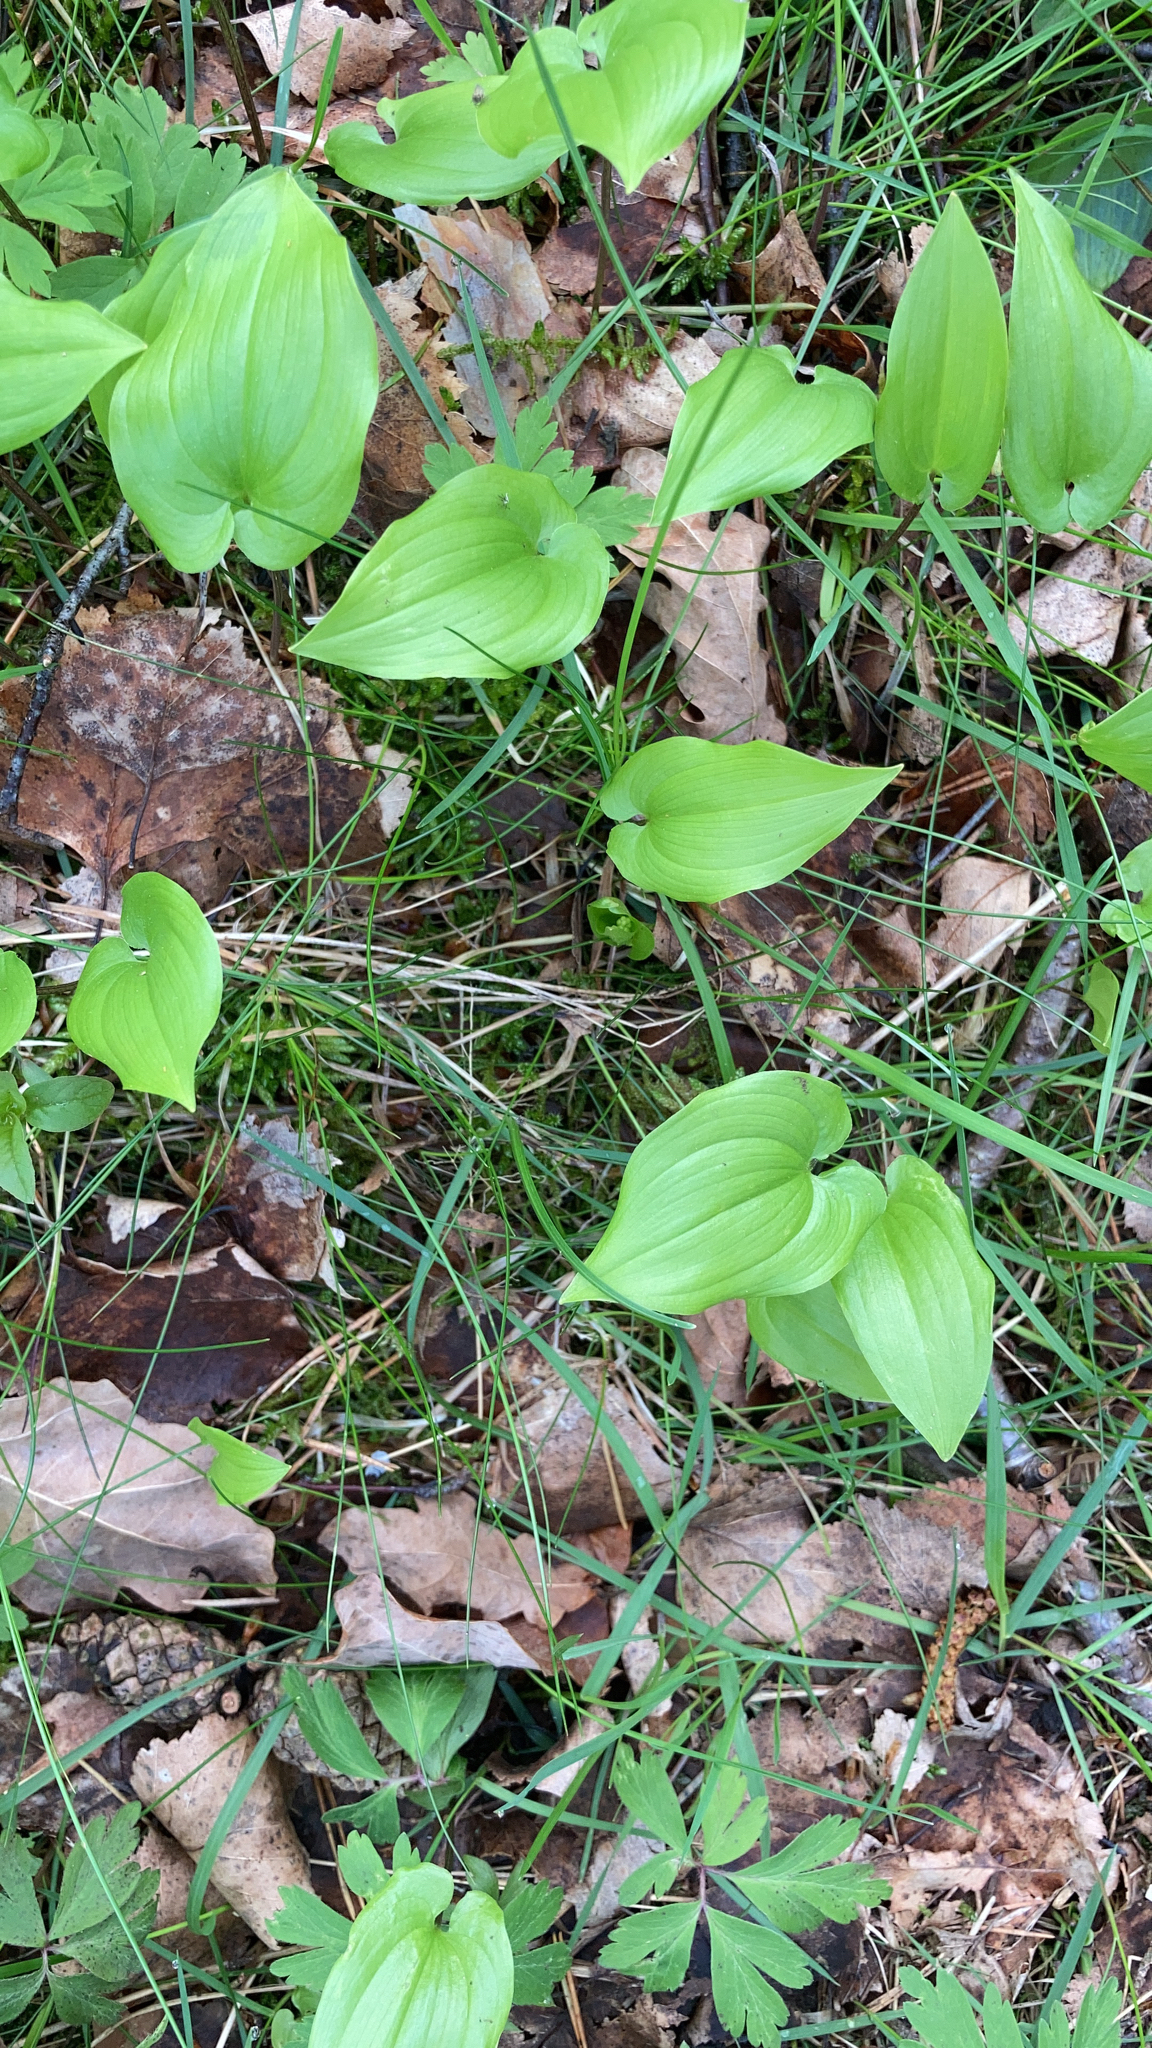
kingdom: Plantae
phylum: Tracheophyta
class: Liliopsida
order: Asparagales
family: Asparagaceae
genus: Maianthemum
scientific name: Maianthemum bifolium
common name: May lily
